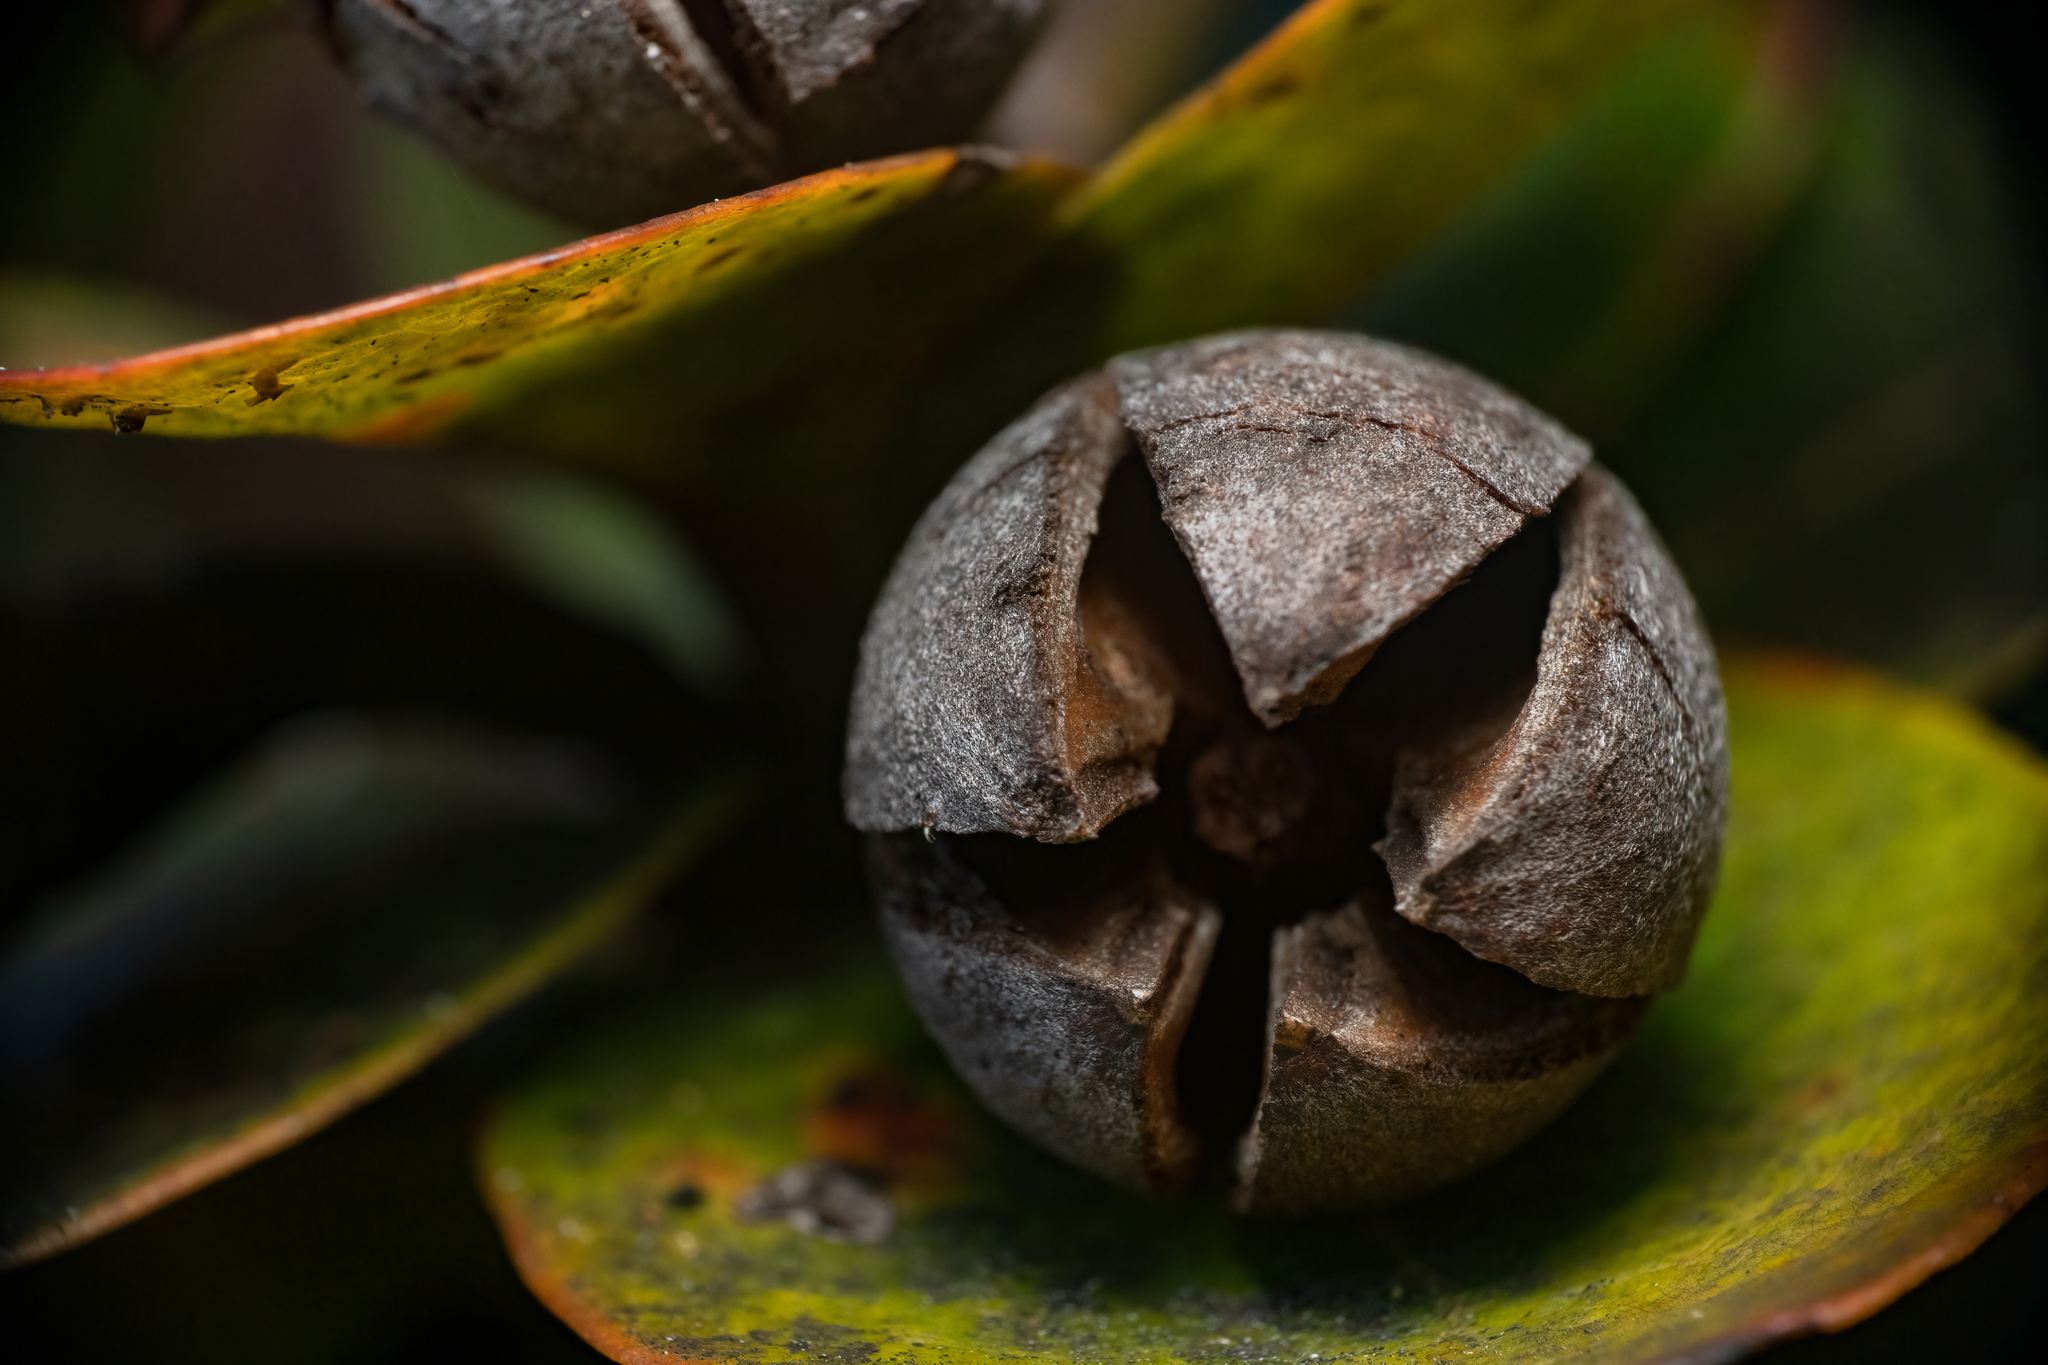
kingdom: Plantae
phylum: Tracheophyta
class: Magnoliopsida
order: Ericales
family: Theaceae
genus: Schima
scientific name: Schima brevifolia
